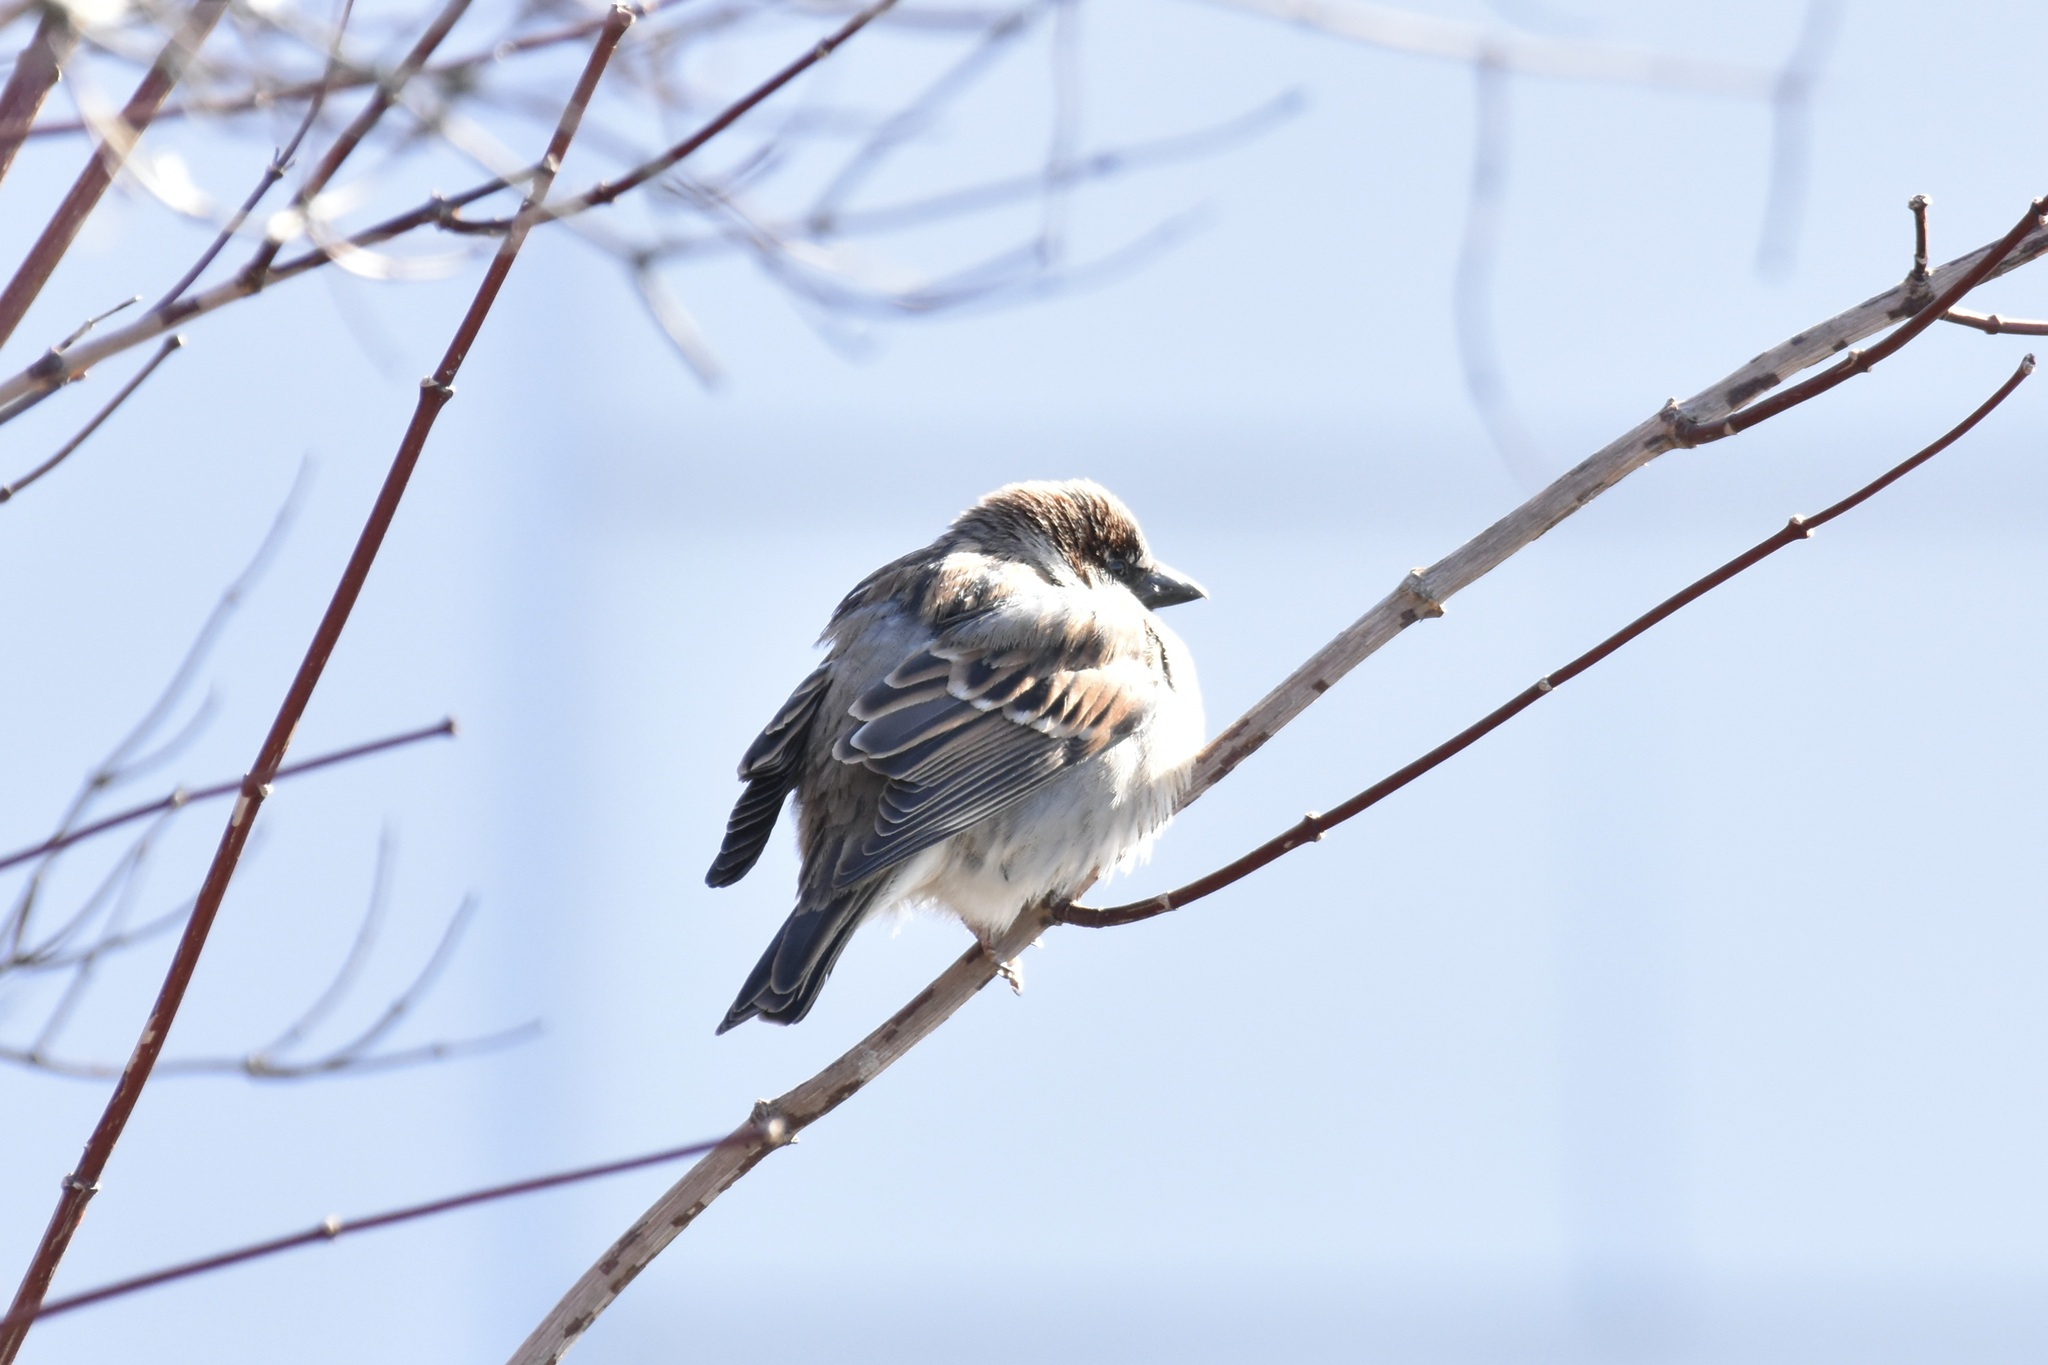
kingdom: Animalia
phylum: Chordata
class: Aves
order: Passeriformes
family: Passeridae
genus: Passer
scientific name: Passer domesticus
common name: House sparrow
